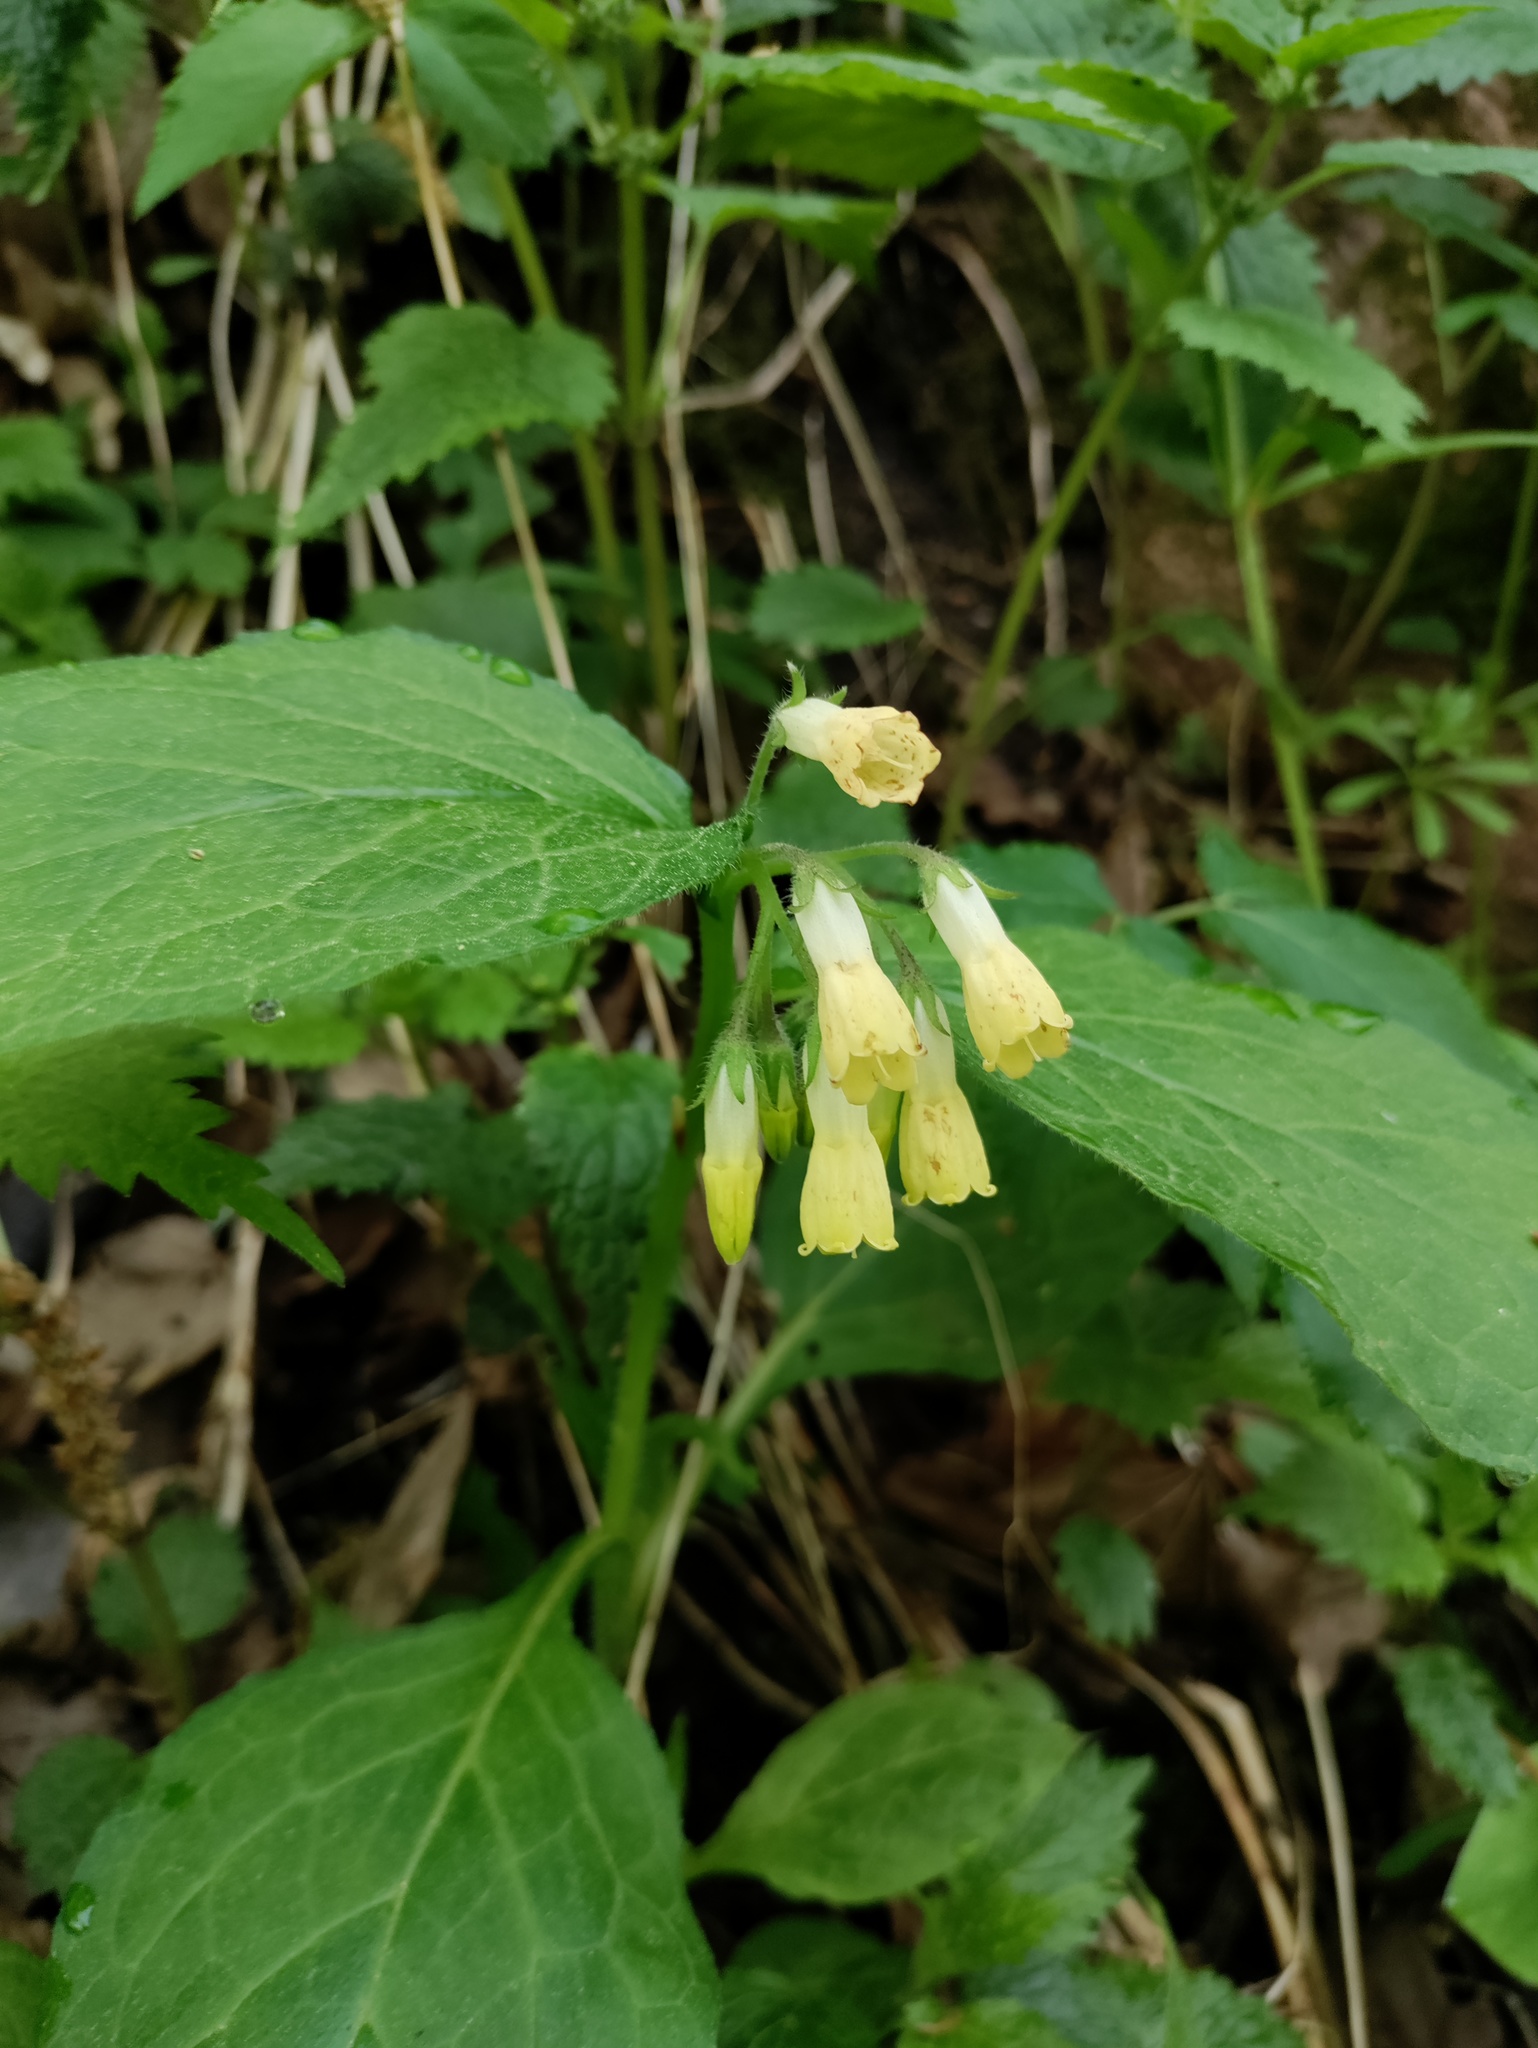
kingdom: Plantae
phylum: Tracheophyta
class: Magnoliopsida
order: Boraginales
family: Boraginaceae
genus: Symphytum
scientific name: Symphytum tuberosum
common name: Tuberous comfrey
